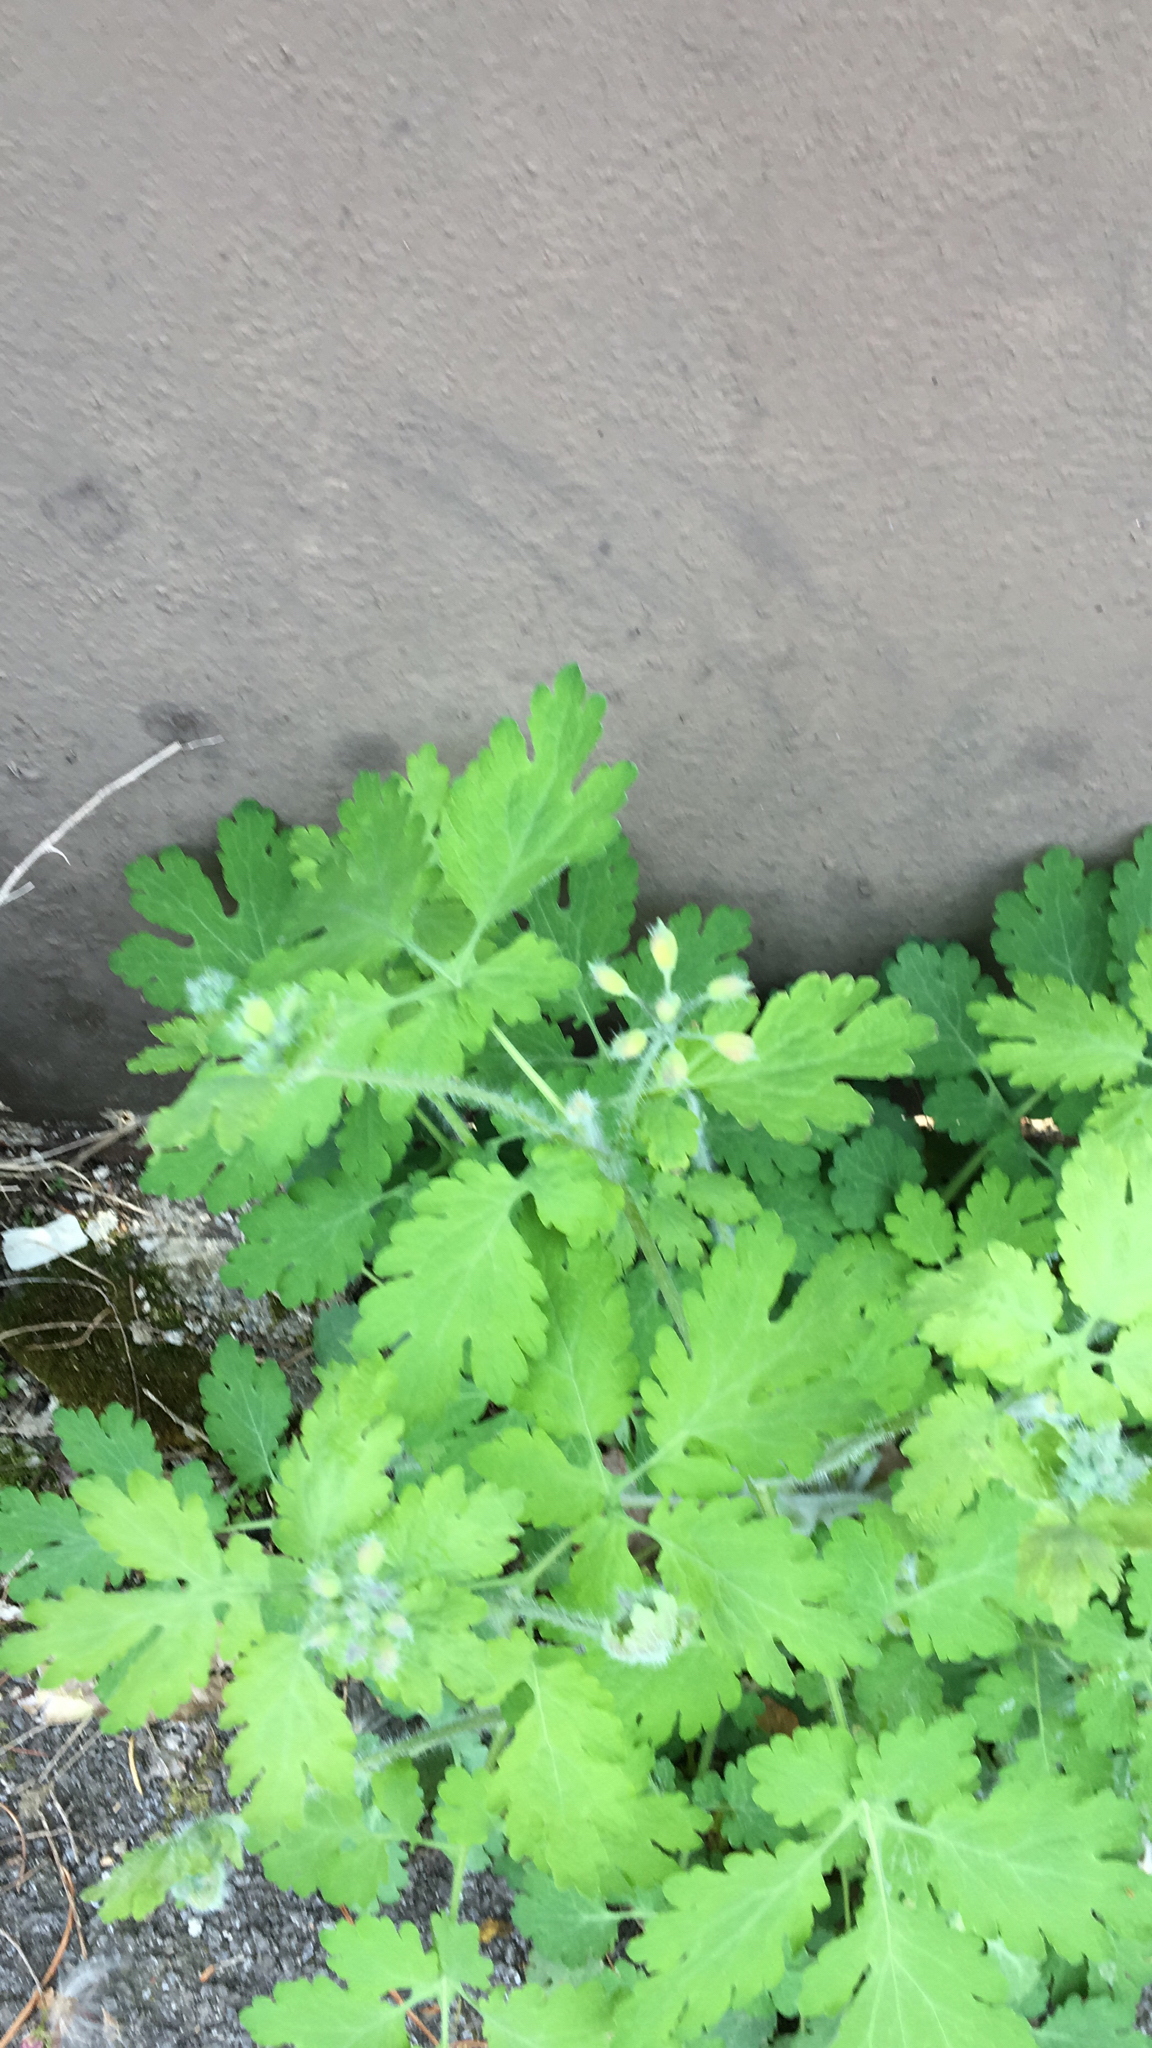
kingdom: Plantae
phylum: Tracheophyta
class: Magnoliopsida
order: Ranunculales
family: Papaveraceae
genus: Chelidonium
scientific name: Chelidonium majus
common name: Greater celandine
